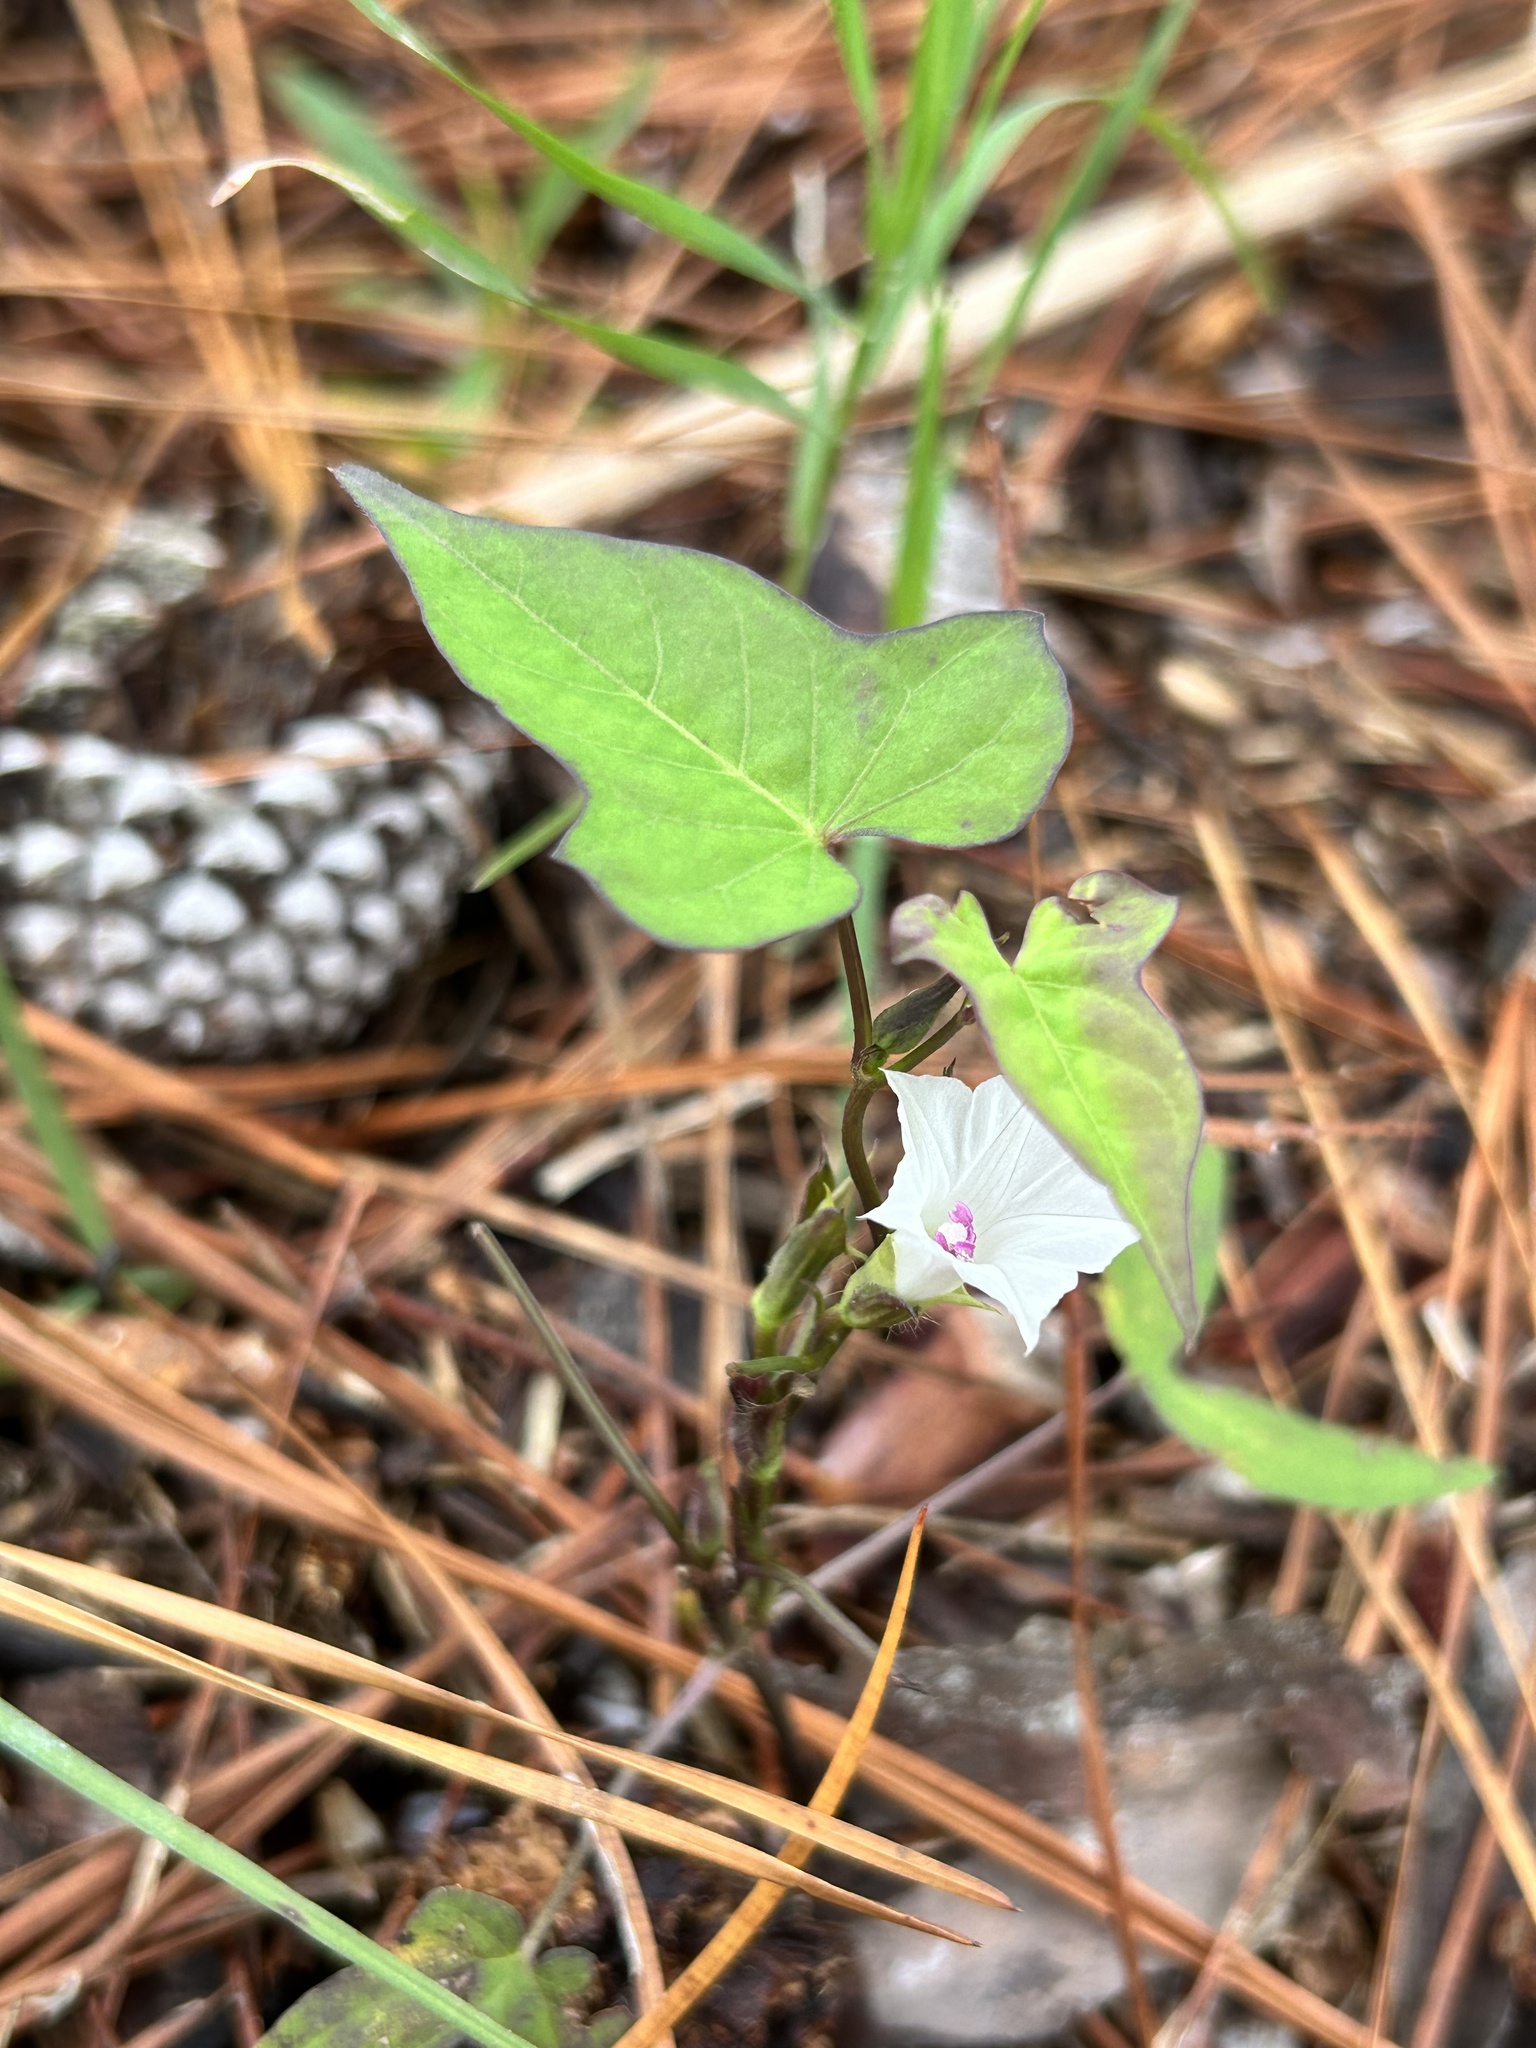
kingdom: Plantae
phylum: Tracheophyta
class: Magnoliopsida
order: Solanales
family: Convolvulaceae
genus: Ipomoea
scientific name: Ipomoea lacunosa
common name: White morning-glory
